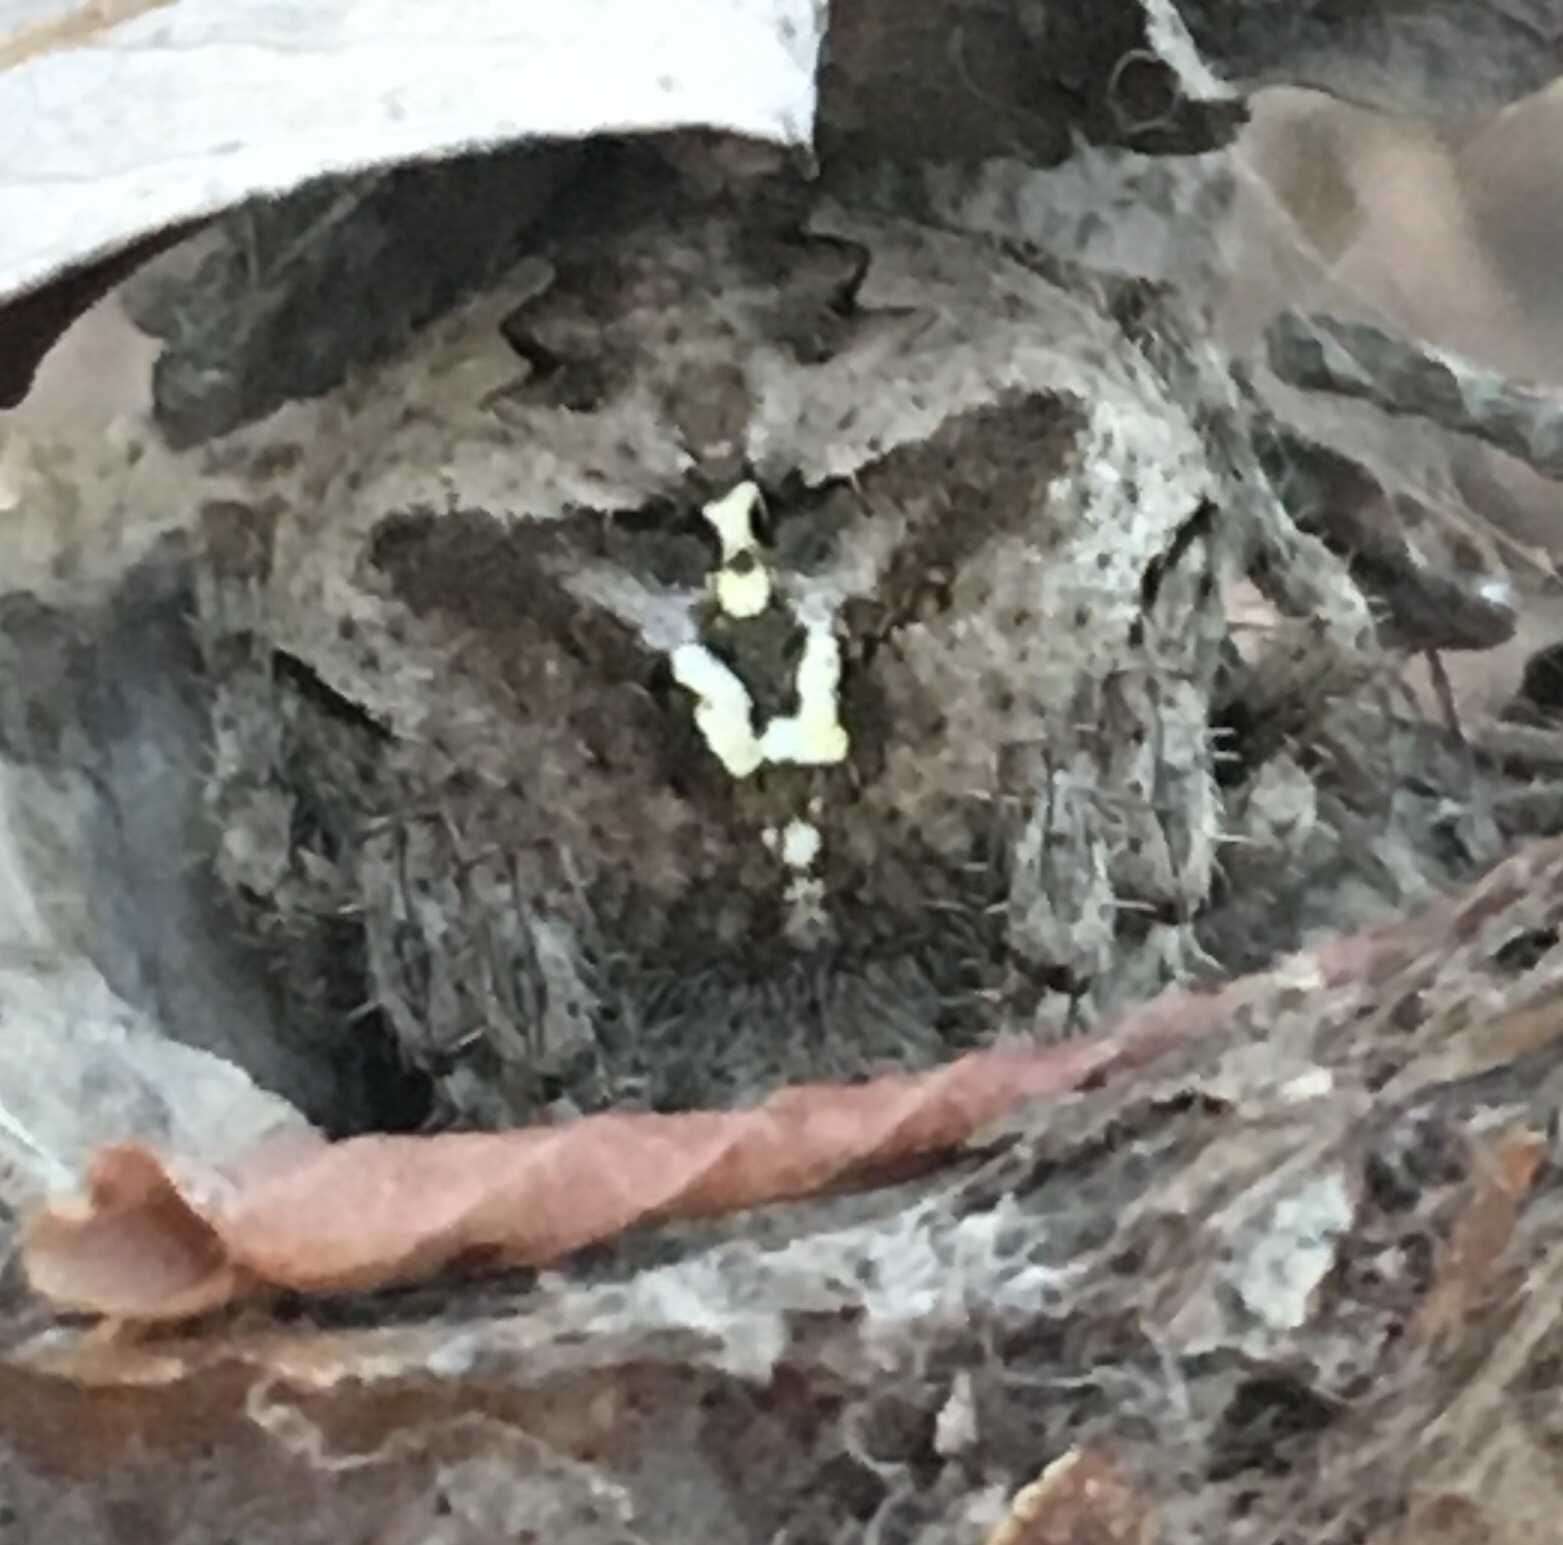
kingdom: Animalia
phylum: Arthropoda
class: Arachnida
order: Araneae
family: Araneidae
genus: Araneus
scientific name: Araneus andrewsi
